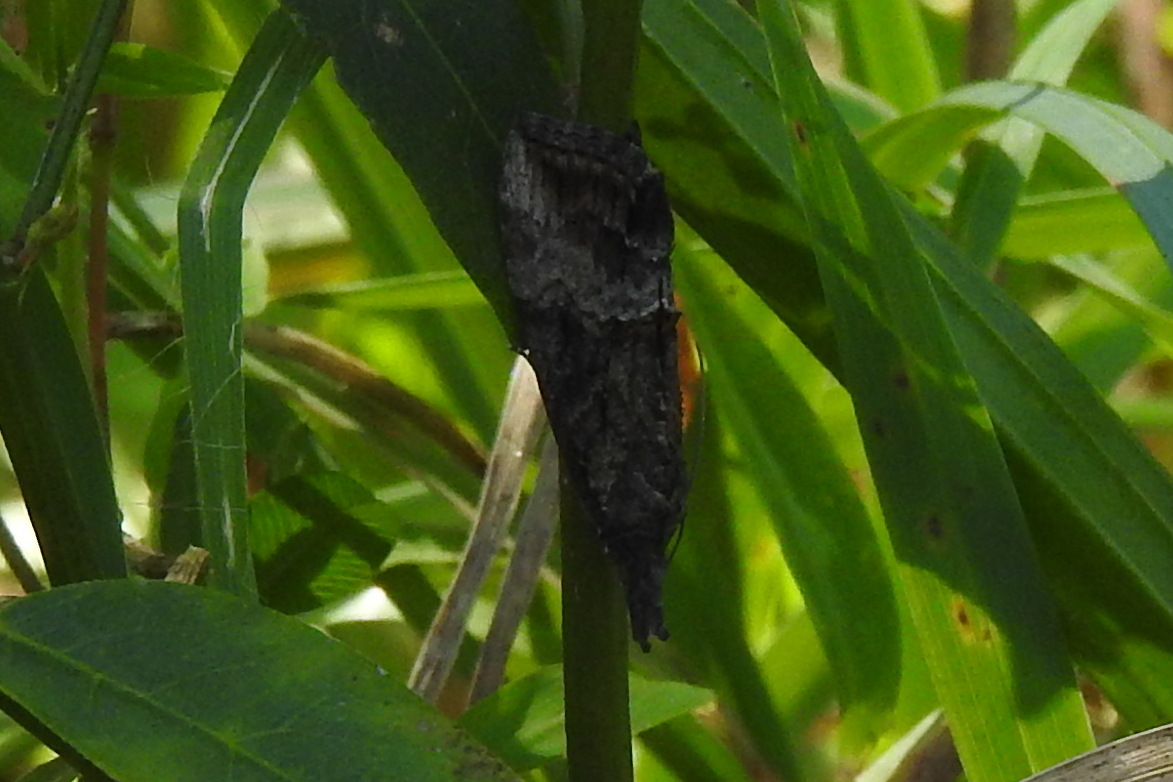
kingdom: Animalia
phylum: Arthropoda
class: Insecta
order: Lepidoptera
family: Erebidae
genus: Hypena
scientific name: Hypena scabra
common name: Green cloverworm
